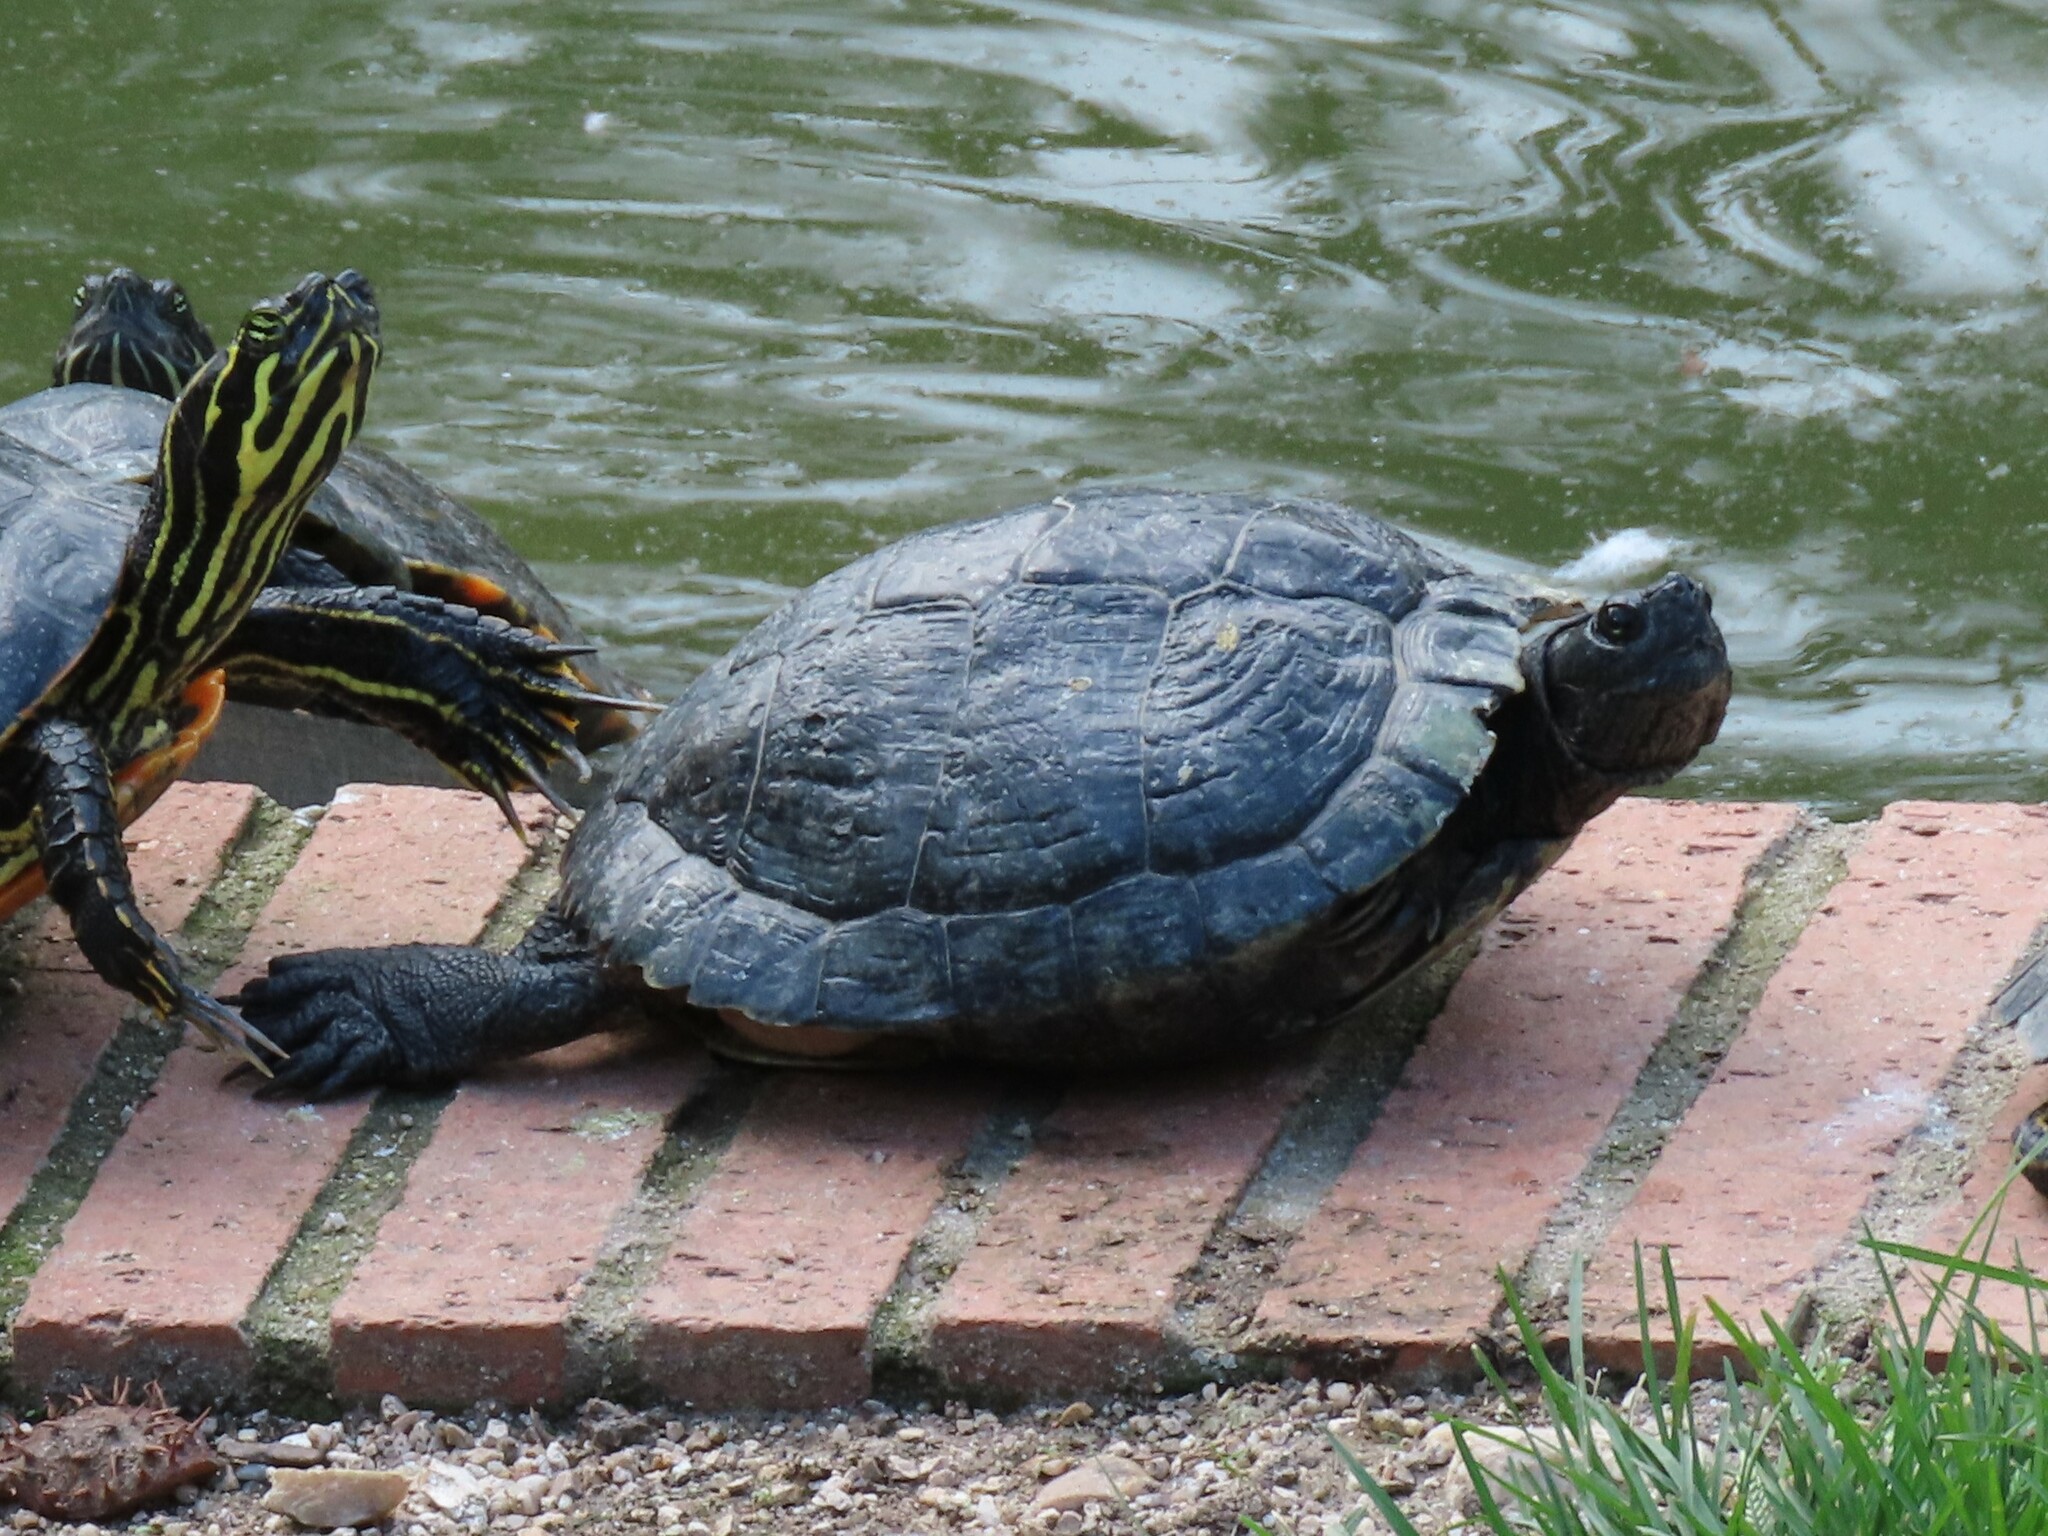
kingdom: Animalia
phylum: Chordata
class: Testudines
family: Emydidae
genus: Trachemys
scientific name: Trachemys scripta
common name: Slider
